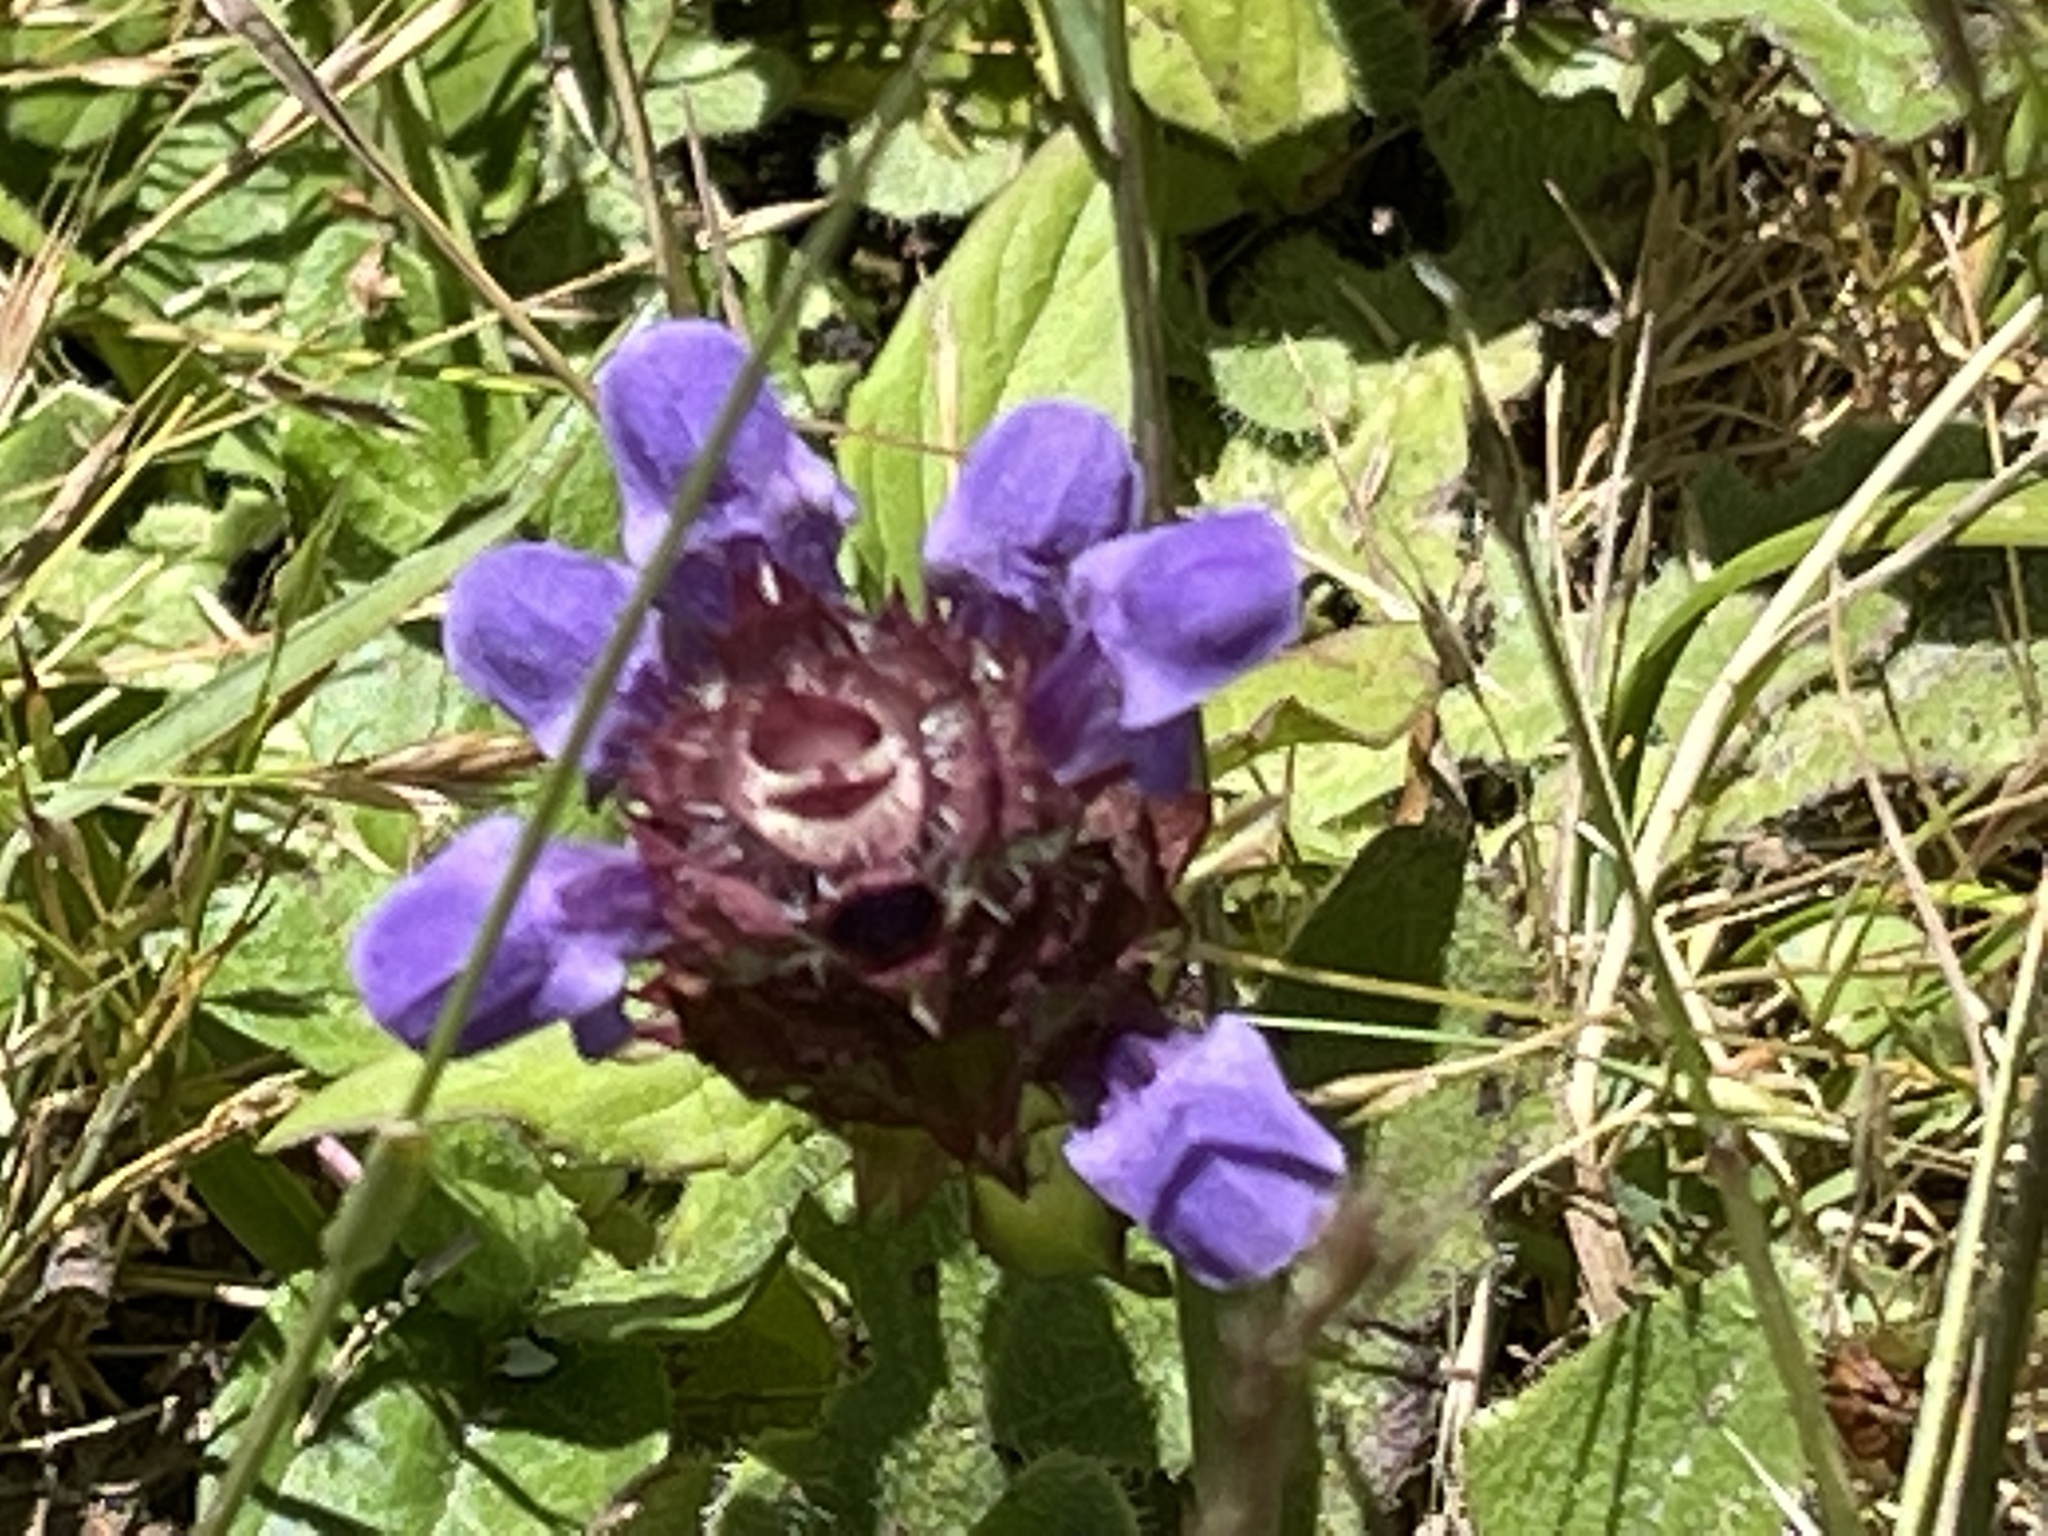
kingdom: Plantae
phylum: Tracheophyta
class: Magnoliopsida
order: Lamiales
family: Lamiaceae
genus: Prunella
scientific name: Prunella vulgaris
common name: Heal-all
